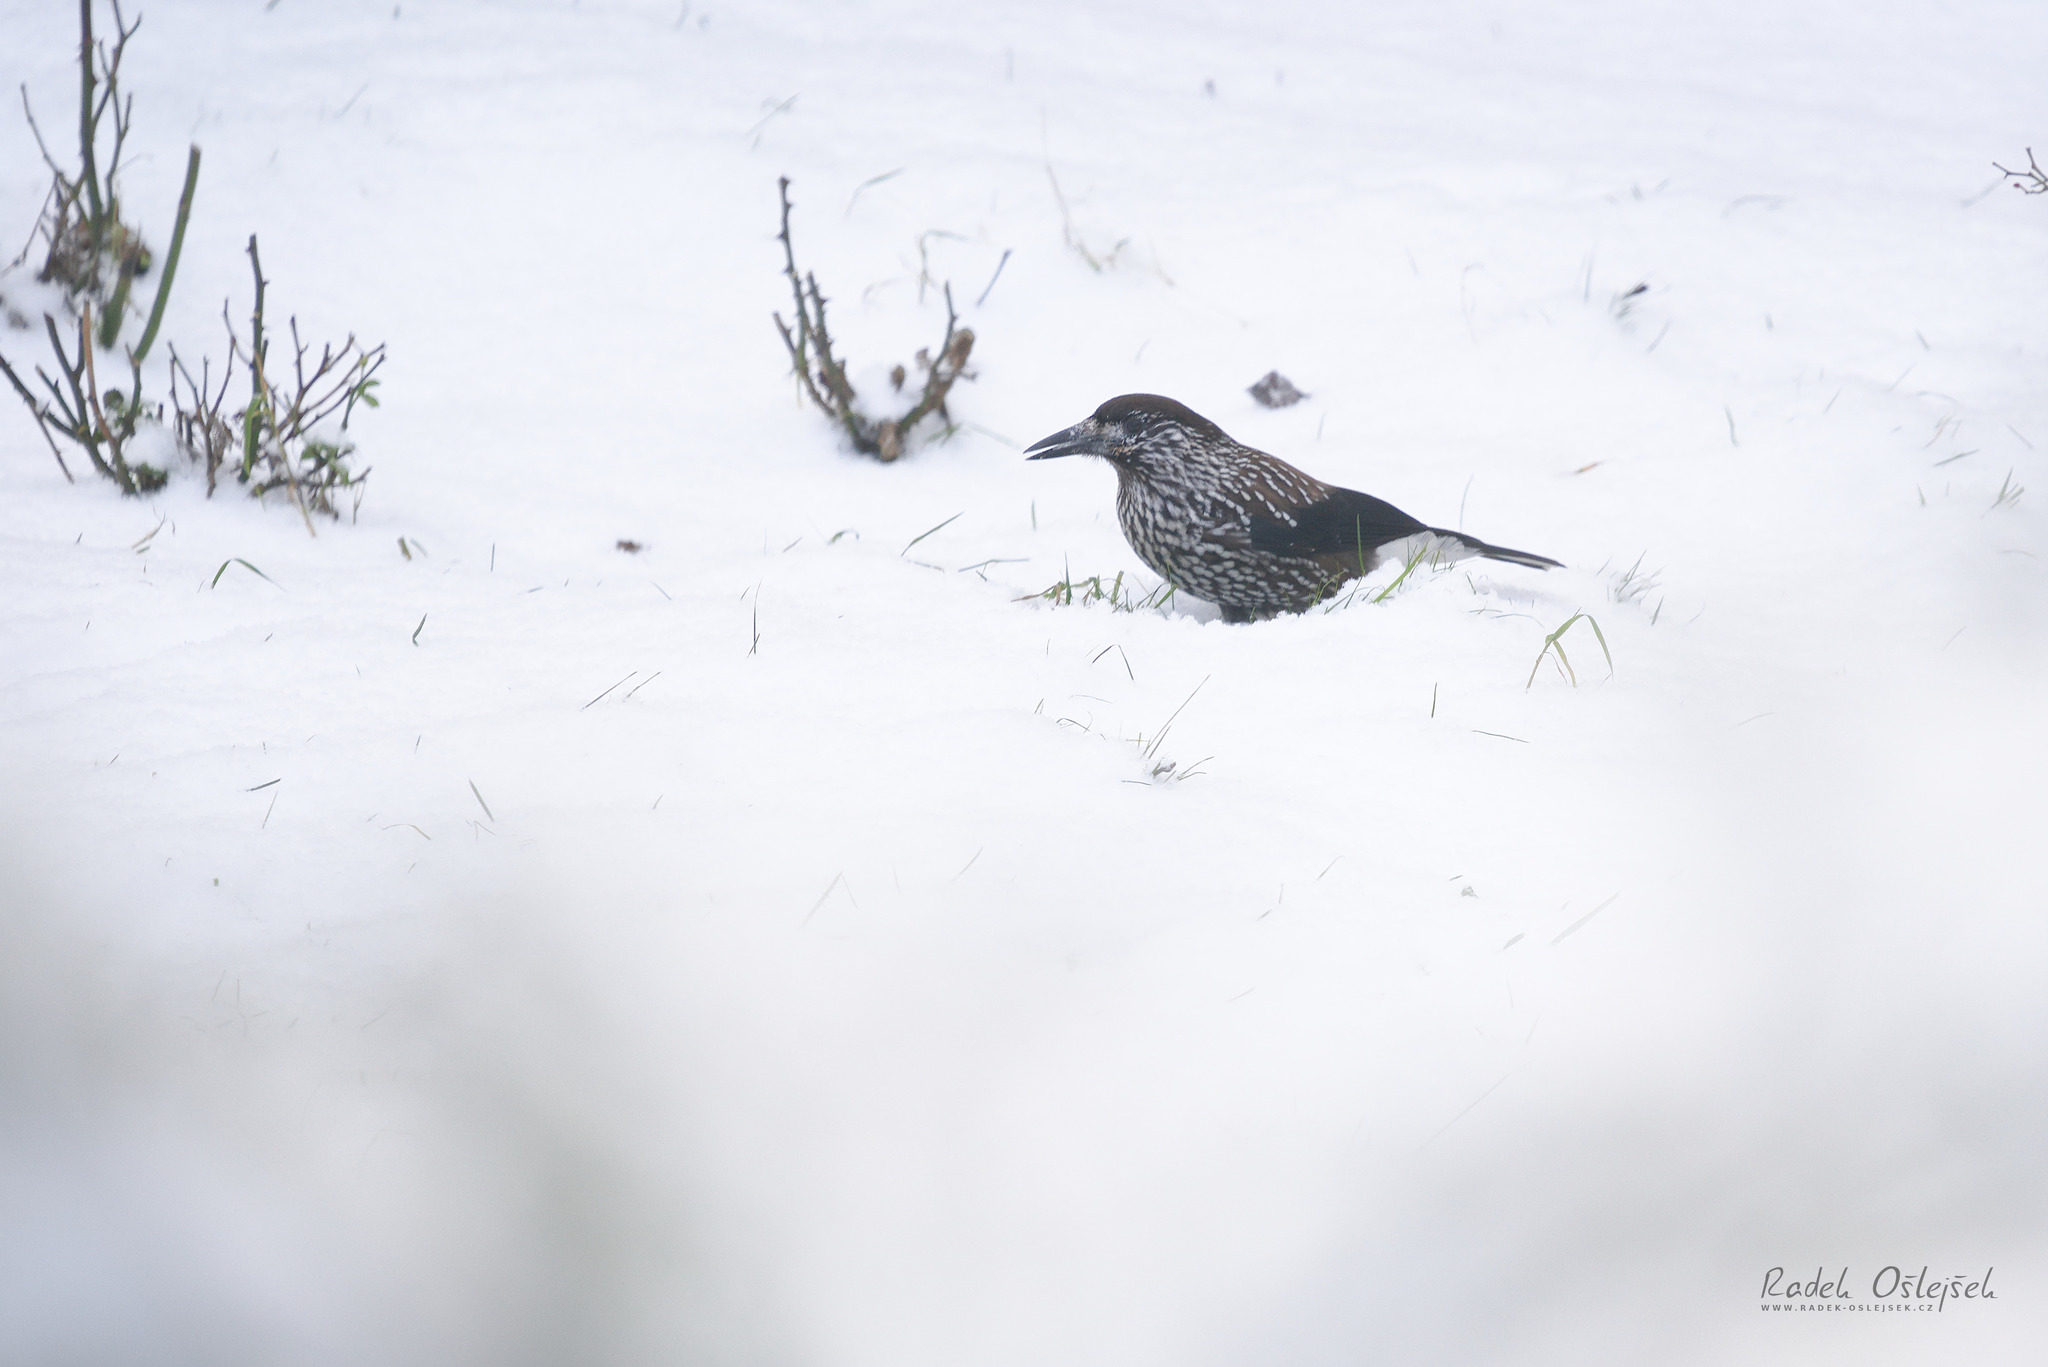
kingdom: Animalia
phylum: Chordata
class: Aves
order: Passeriformes
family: Corvidae
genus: Nucifraga
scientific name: Nucifraga caryocatactes
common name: Spotted nutcracker
